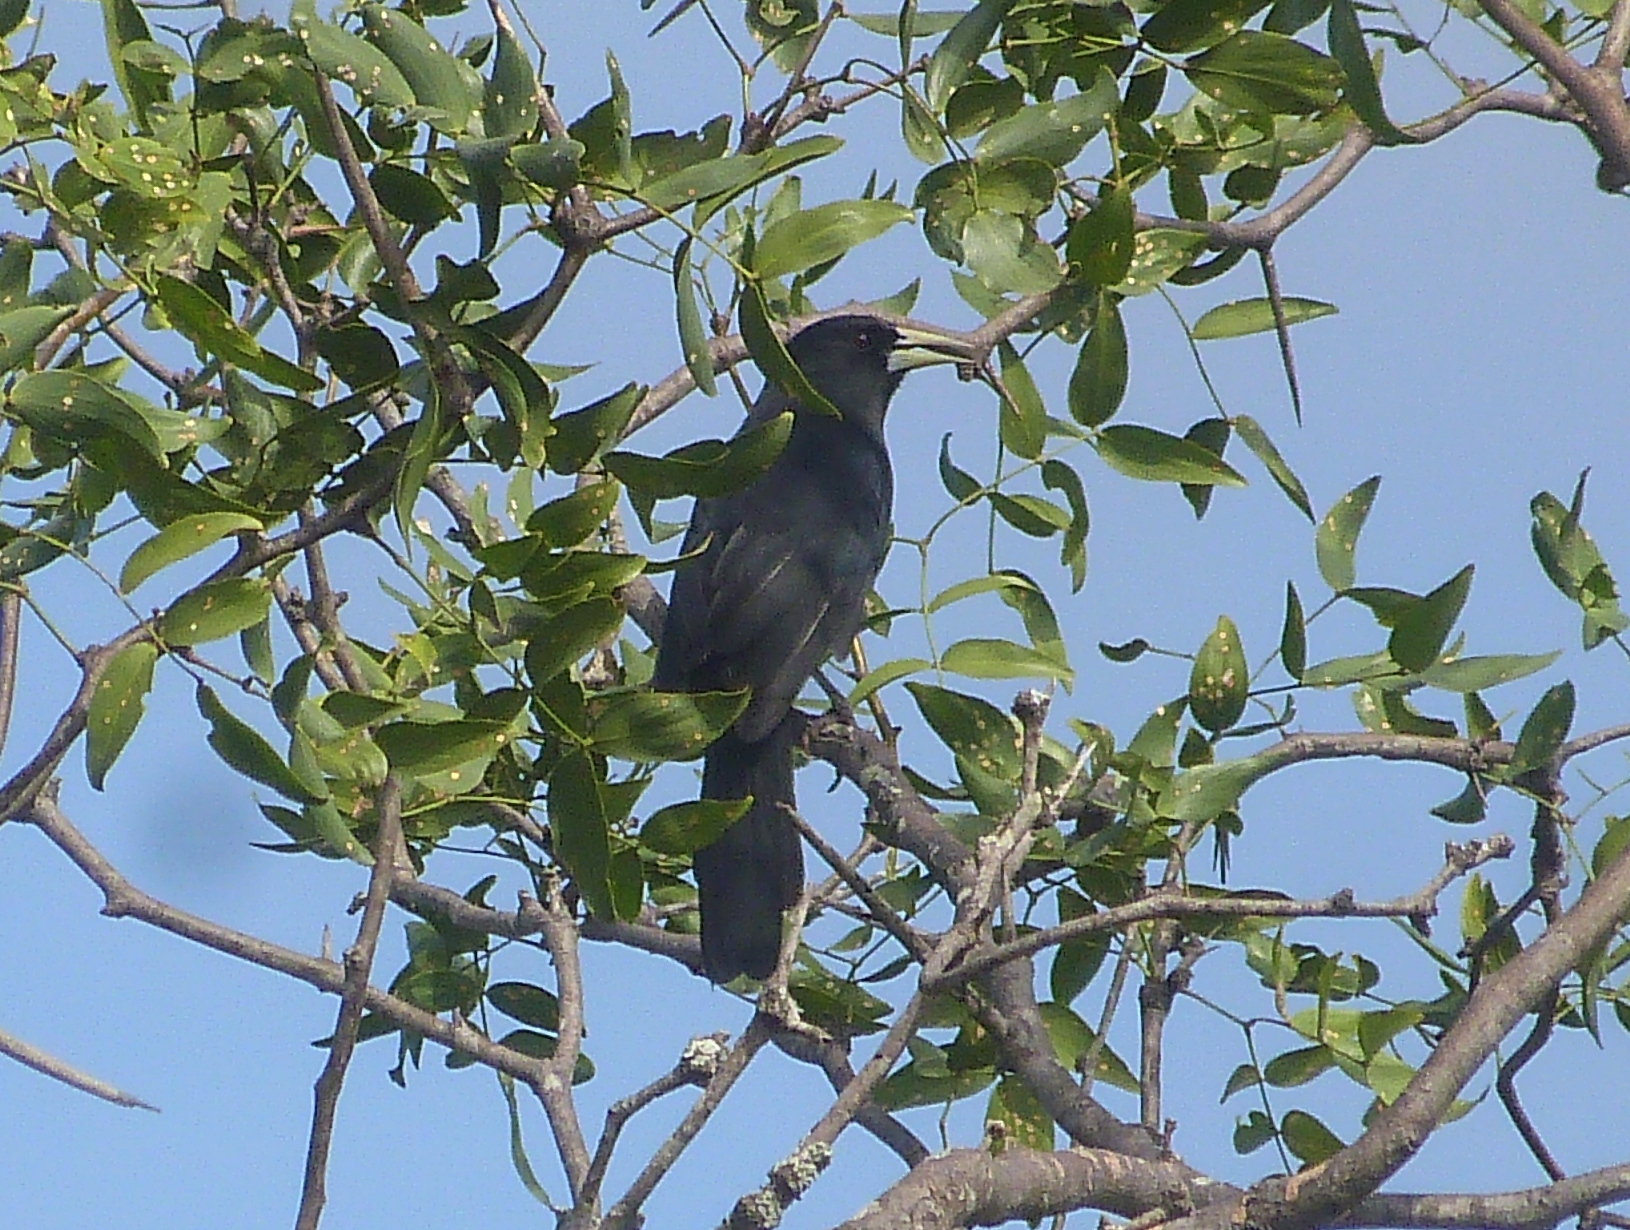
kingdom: Animalia
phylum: Chordata
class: Aves
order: Passeriformes
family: Icteridae
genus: Cacicus
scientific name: Cacicus solitarius
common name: Solitary cacique
